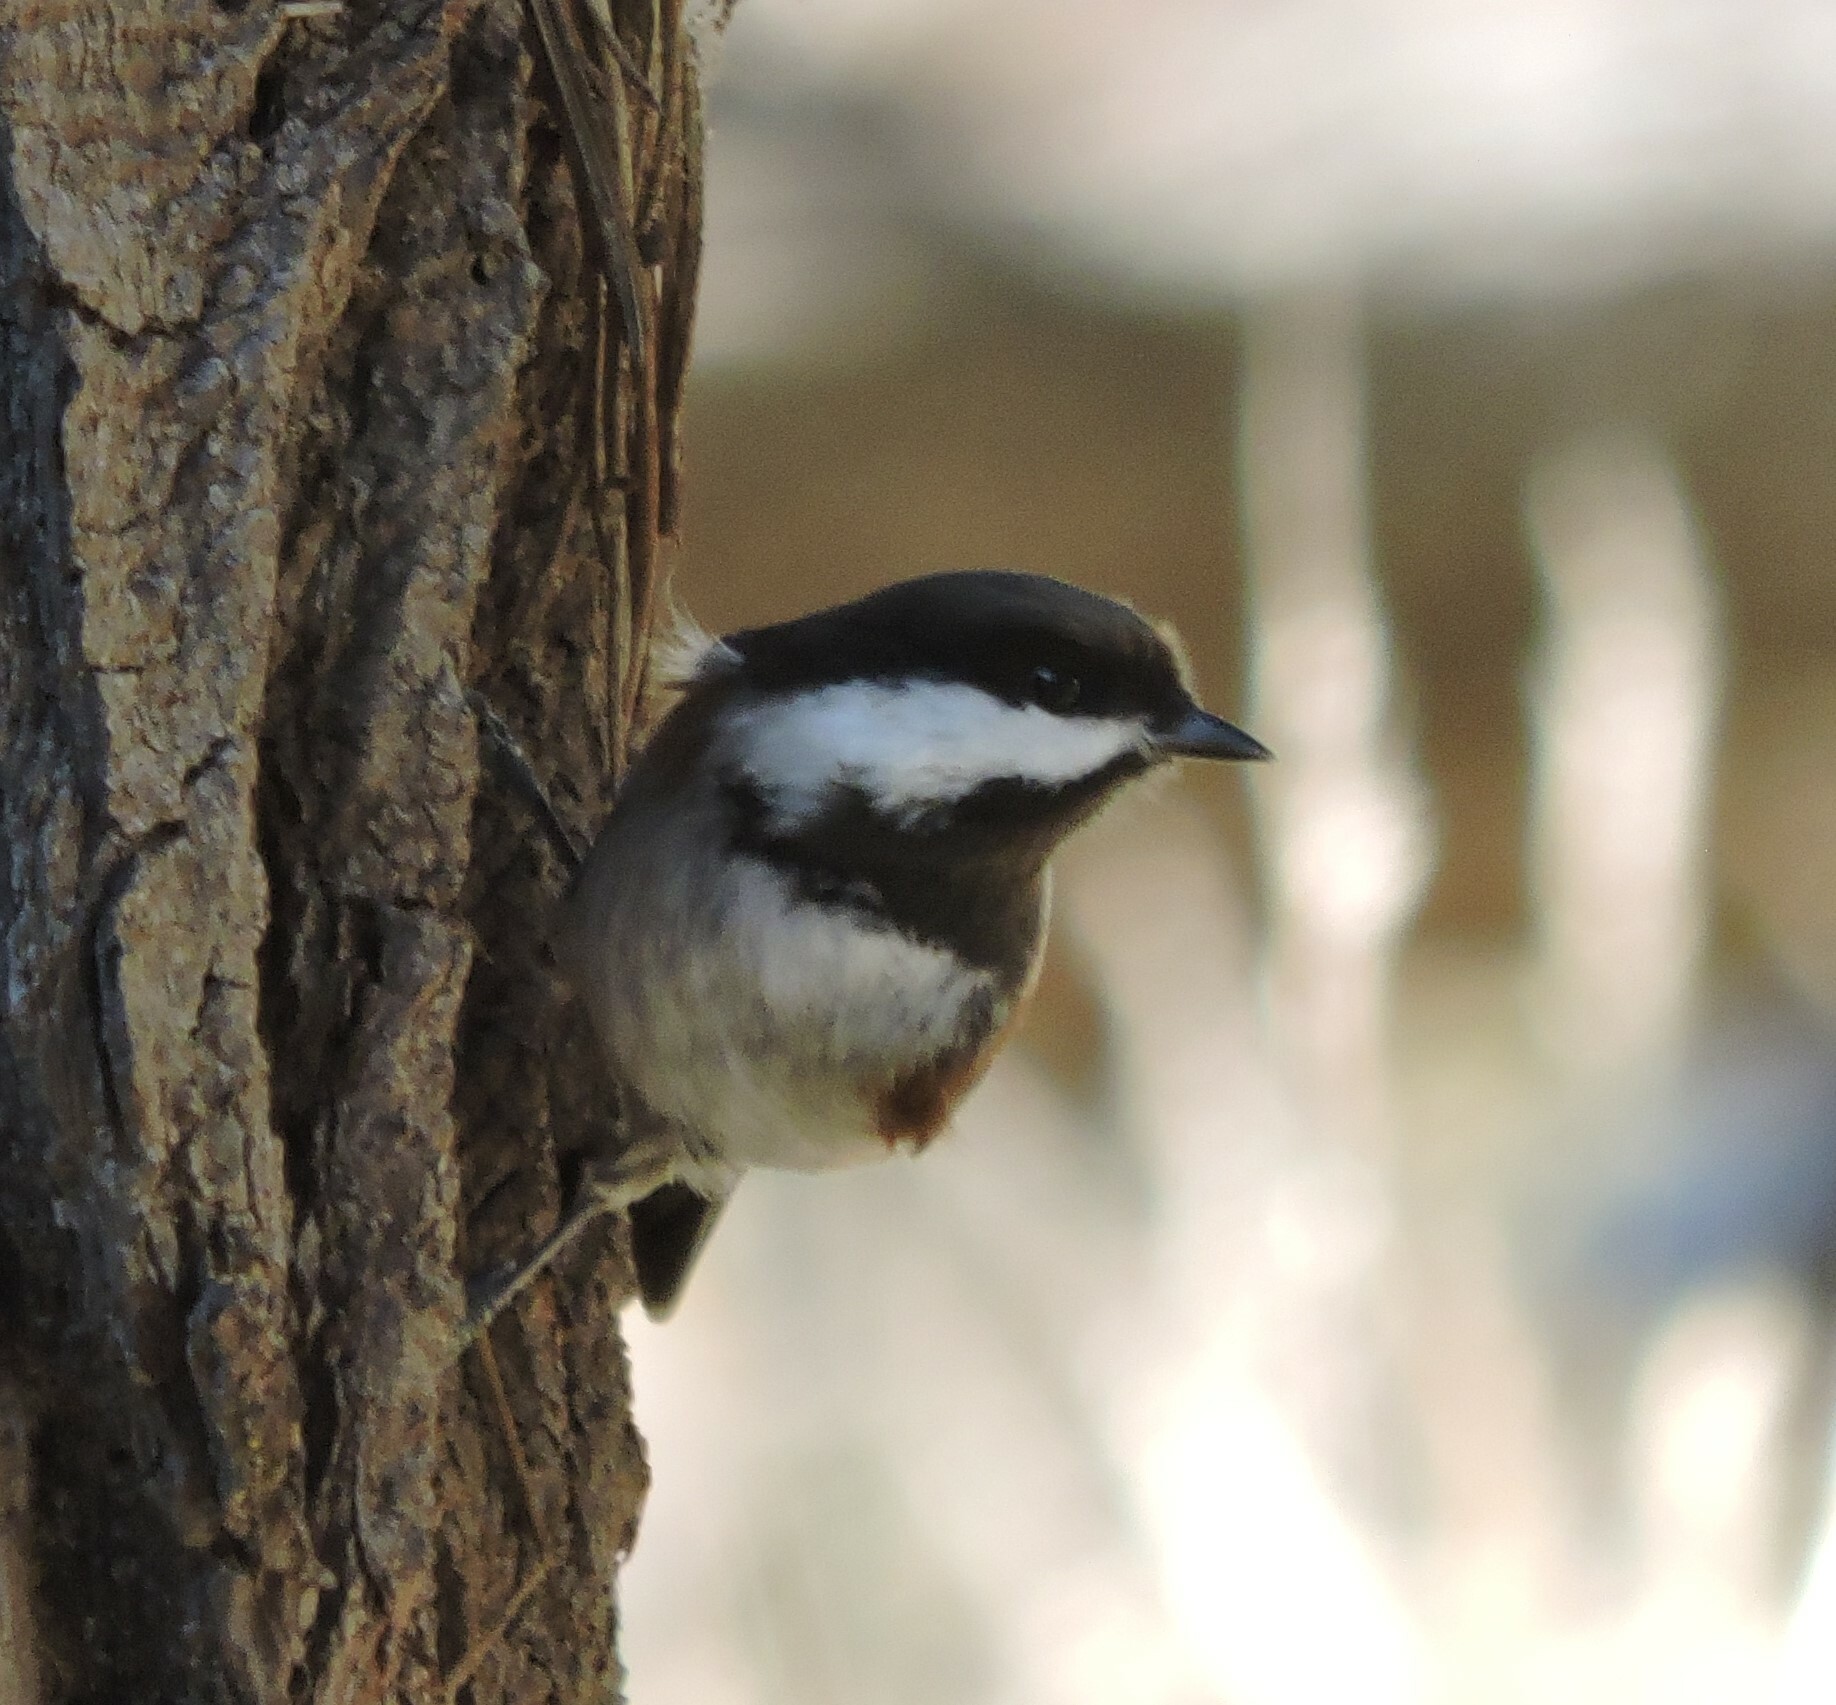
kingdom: Animalia
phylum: Chordata
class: Aves
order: Passeriformes
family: Paridae
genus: Poecile
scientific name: Poecile rufescens
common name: Chestnut-backed chickadee
